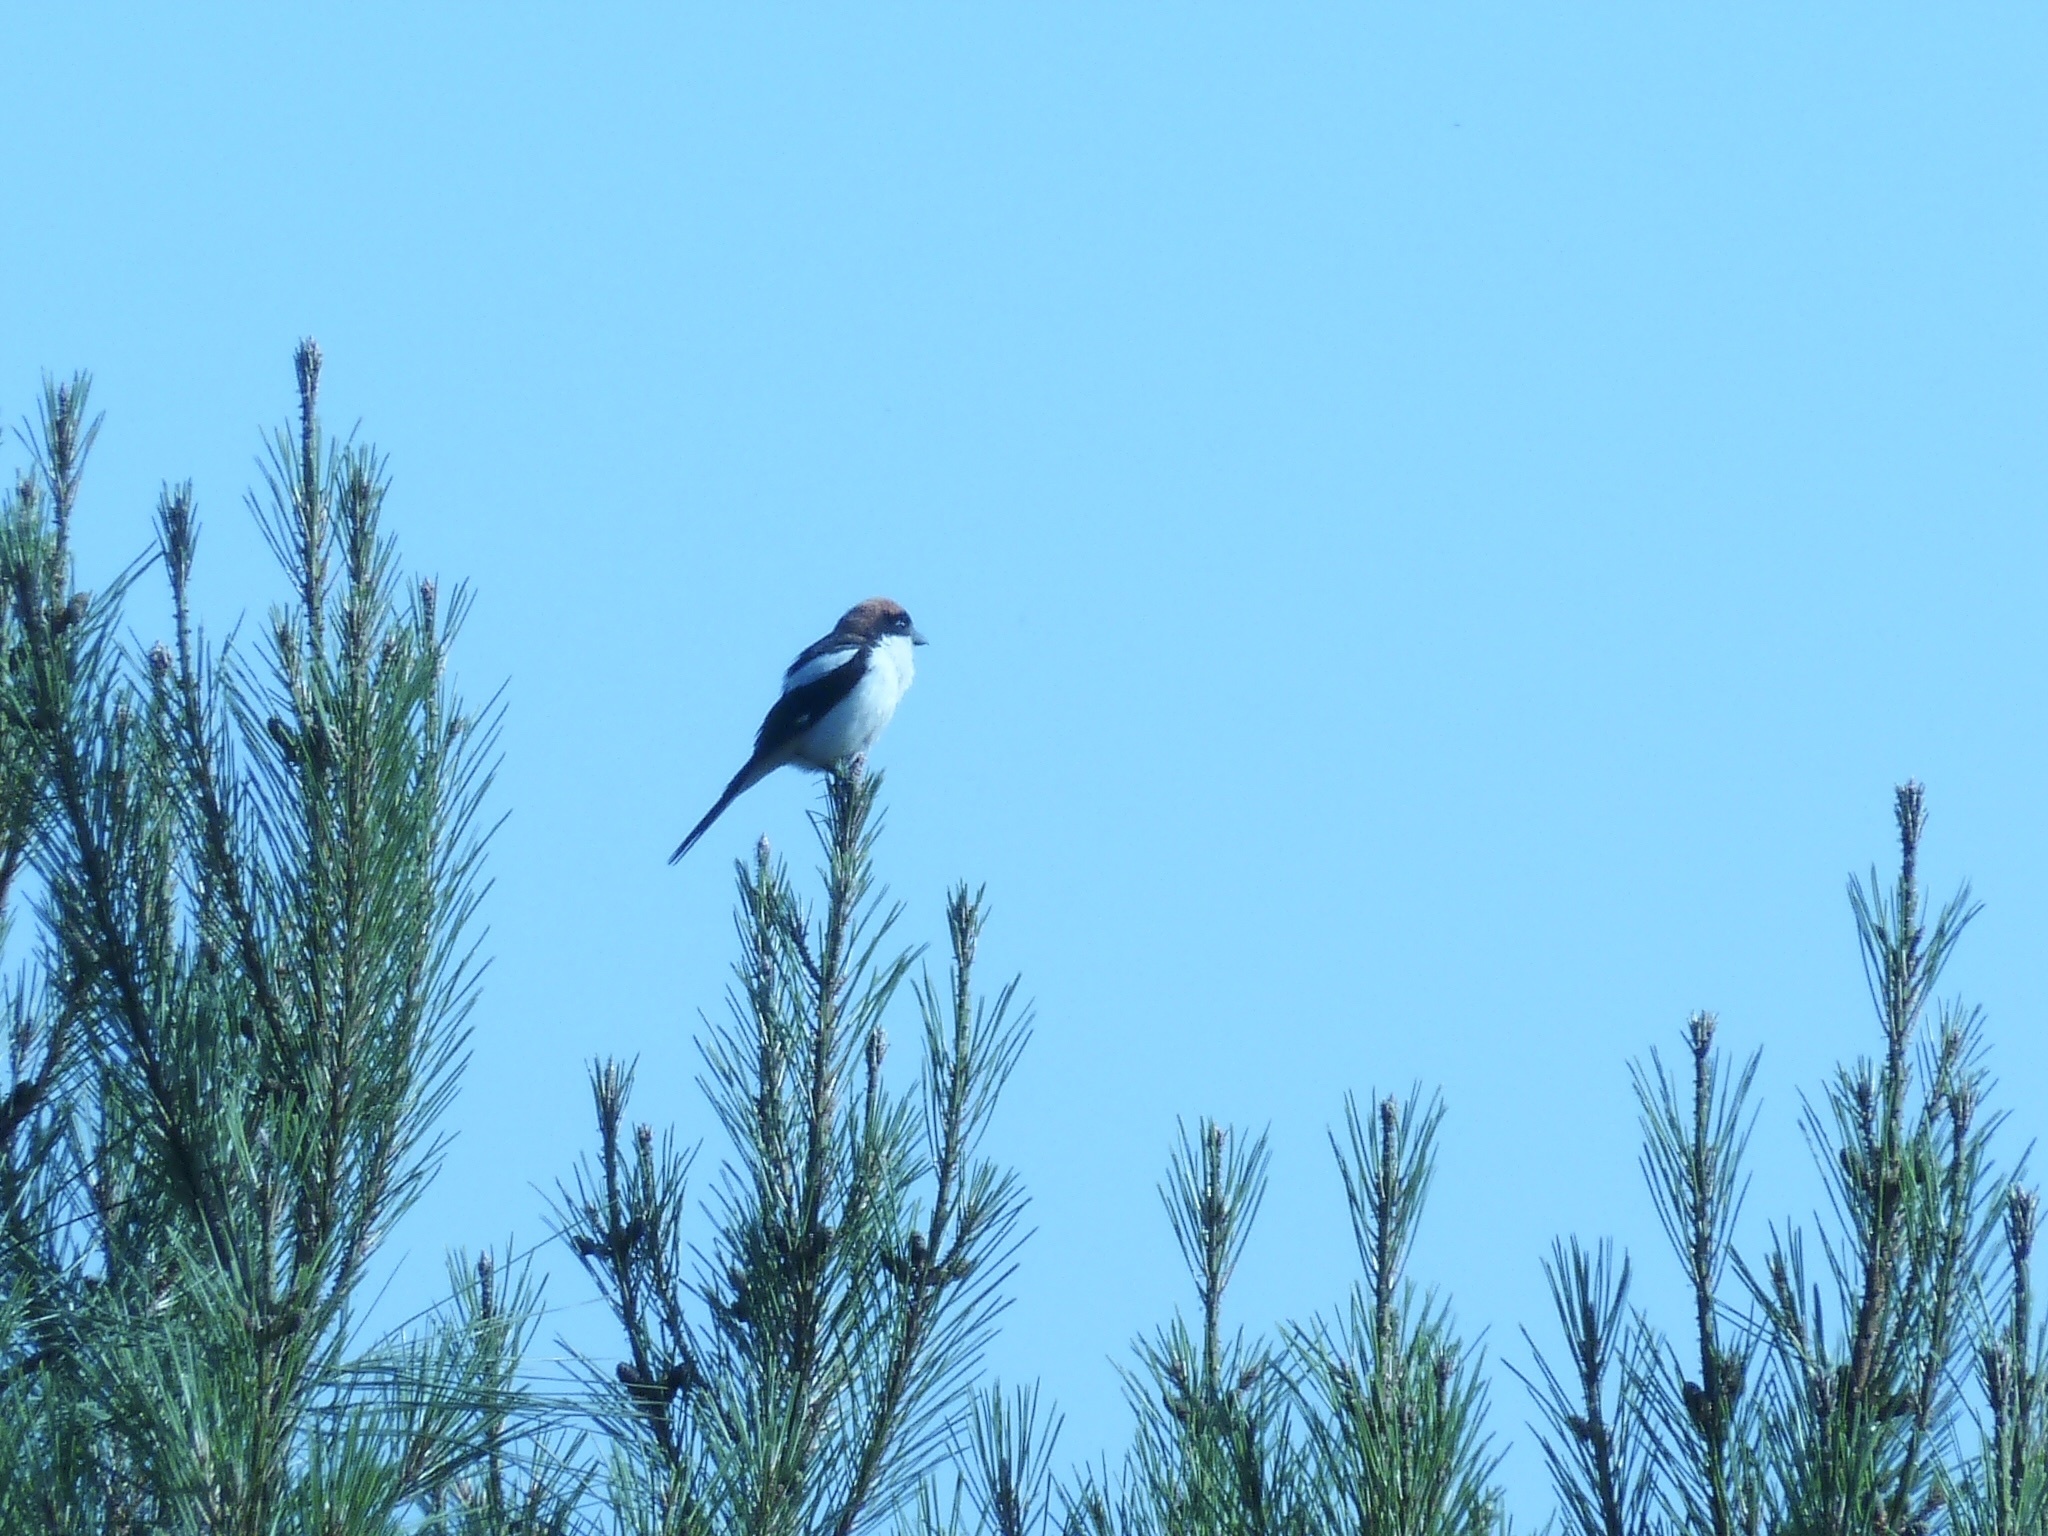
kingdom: Animalia
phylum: Chordata
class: Aves
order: Passeriformes
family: Laniidae
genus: Lanius
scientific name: Lanius senator
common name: Woodchat shrike
